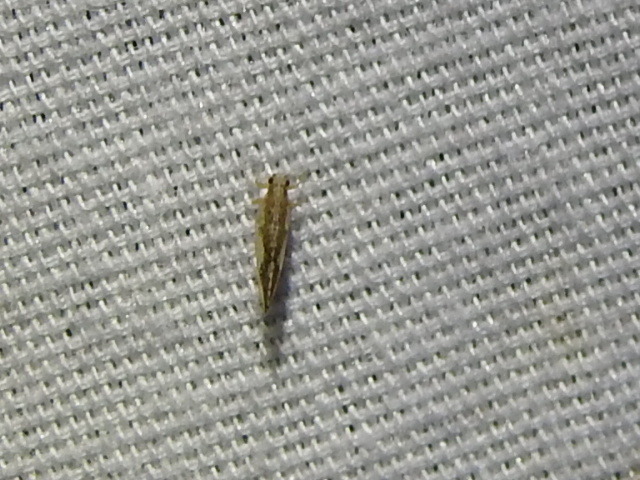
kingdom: Animalia
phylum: Arthropoda
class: Insecta
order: Hemiptera
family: Triozidae
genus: Leuronota
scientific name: Leuronota maculata
